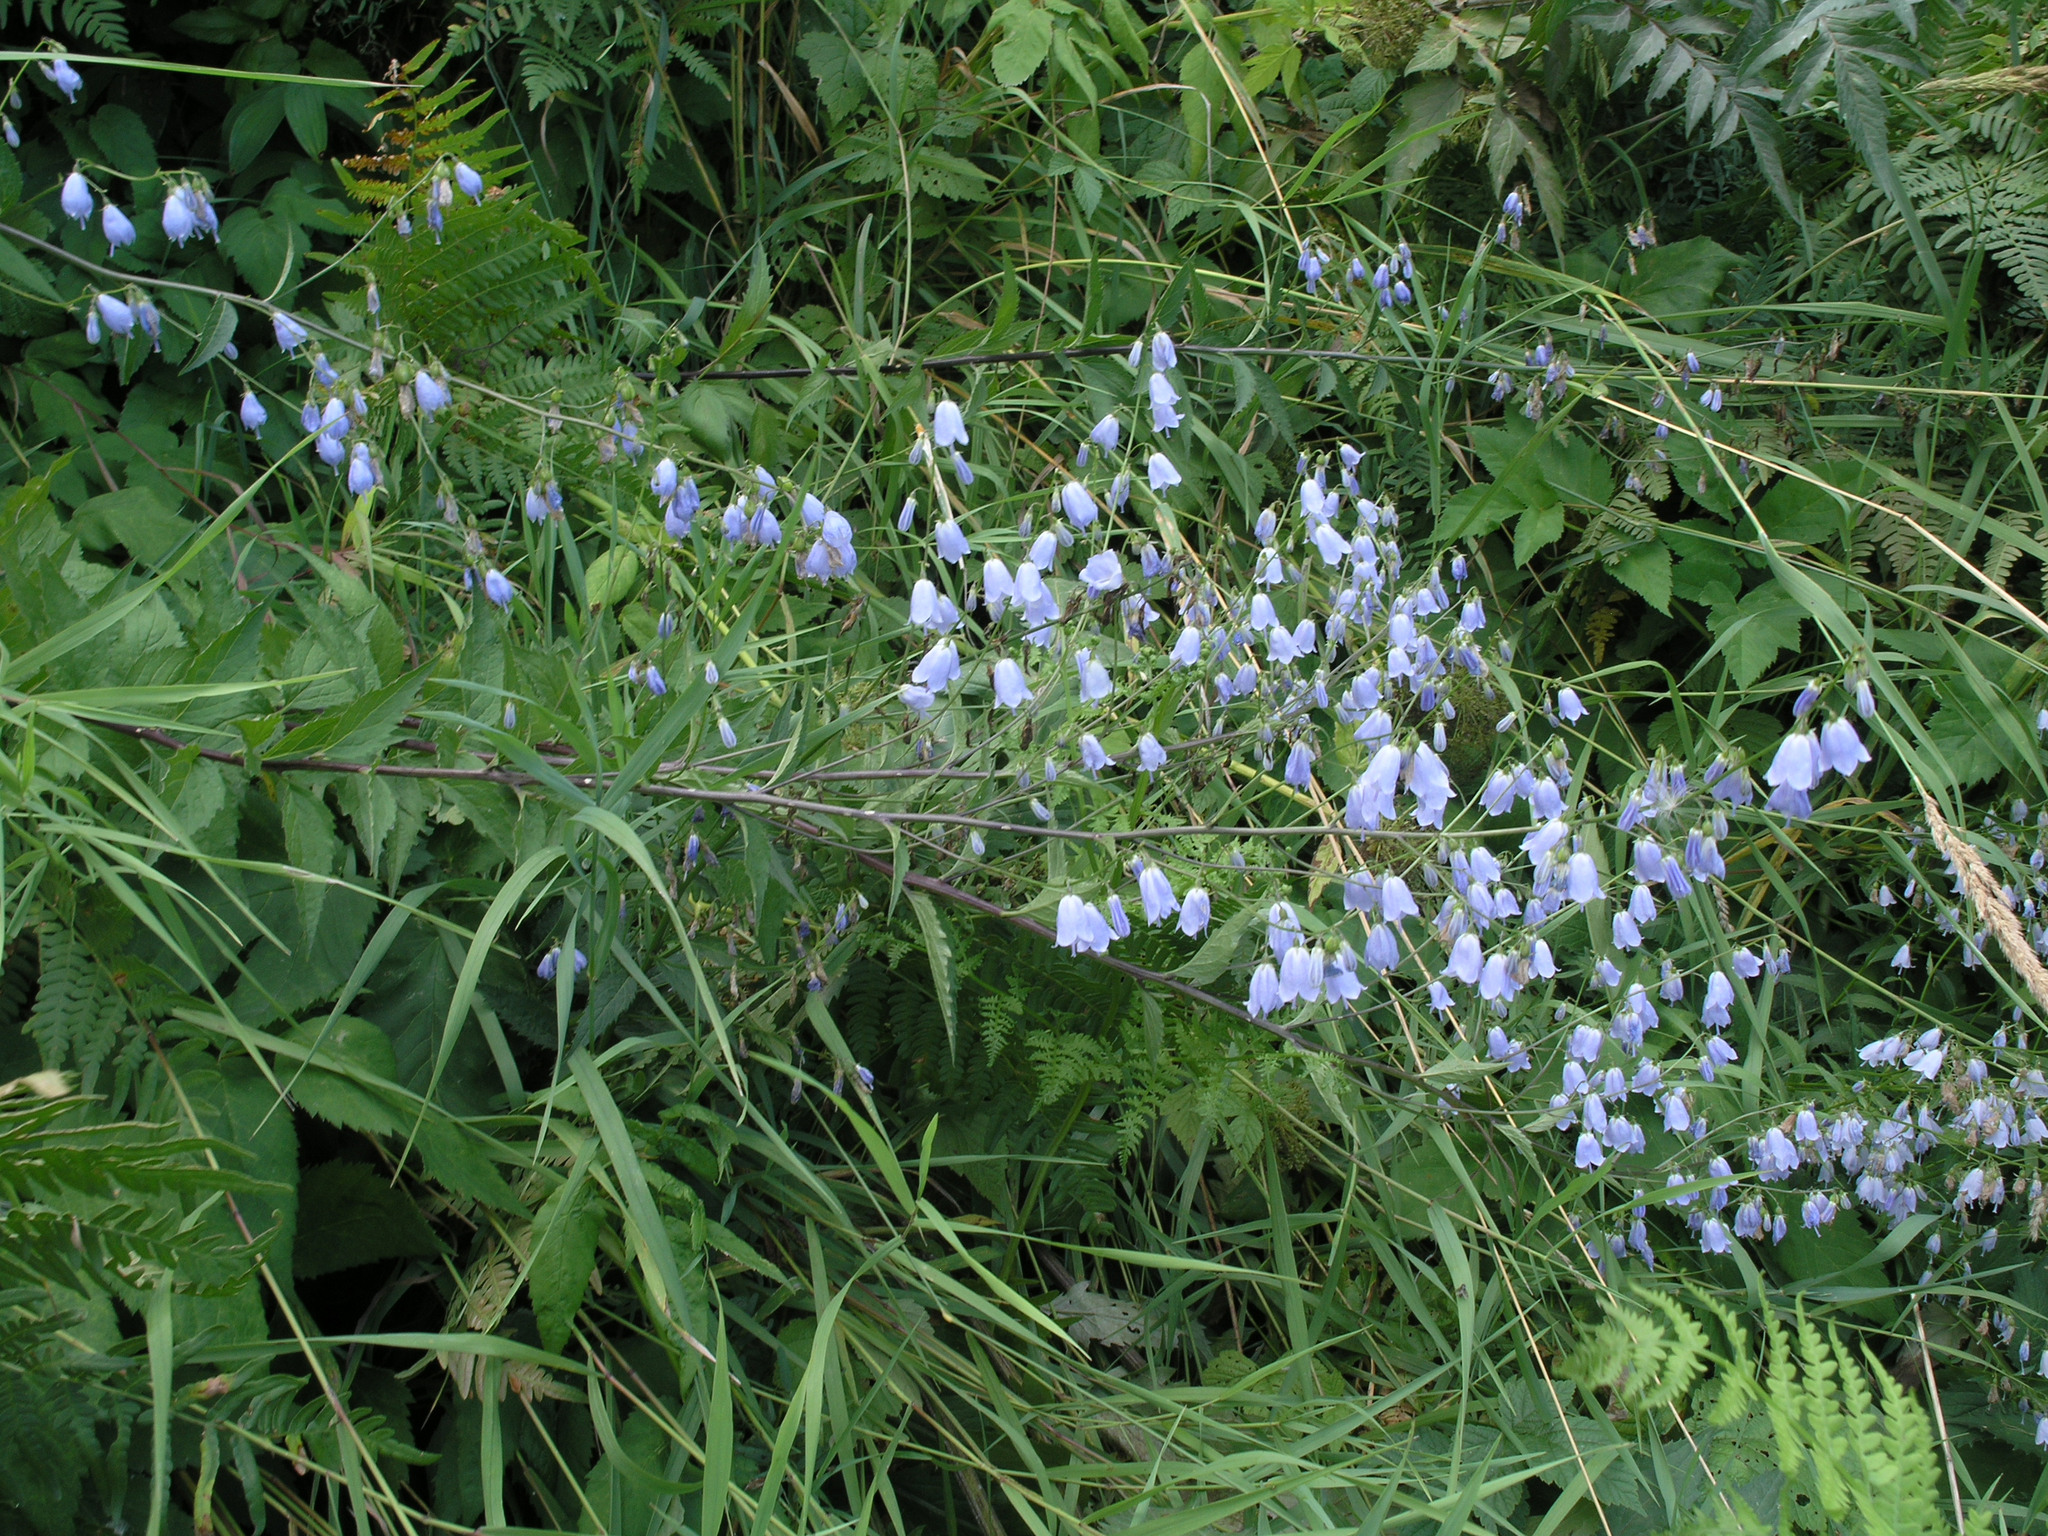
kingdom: Plantae
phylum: Tracheophyta
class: Magnoliopsida
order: Asterales
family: Campanulaceae
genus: Adenophora
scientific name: Adenophora liliifolia
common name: Lilyleaf ladybells
